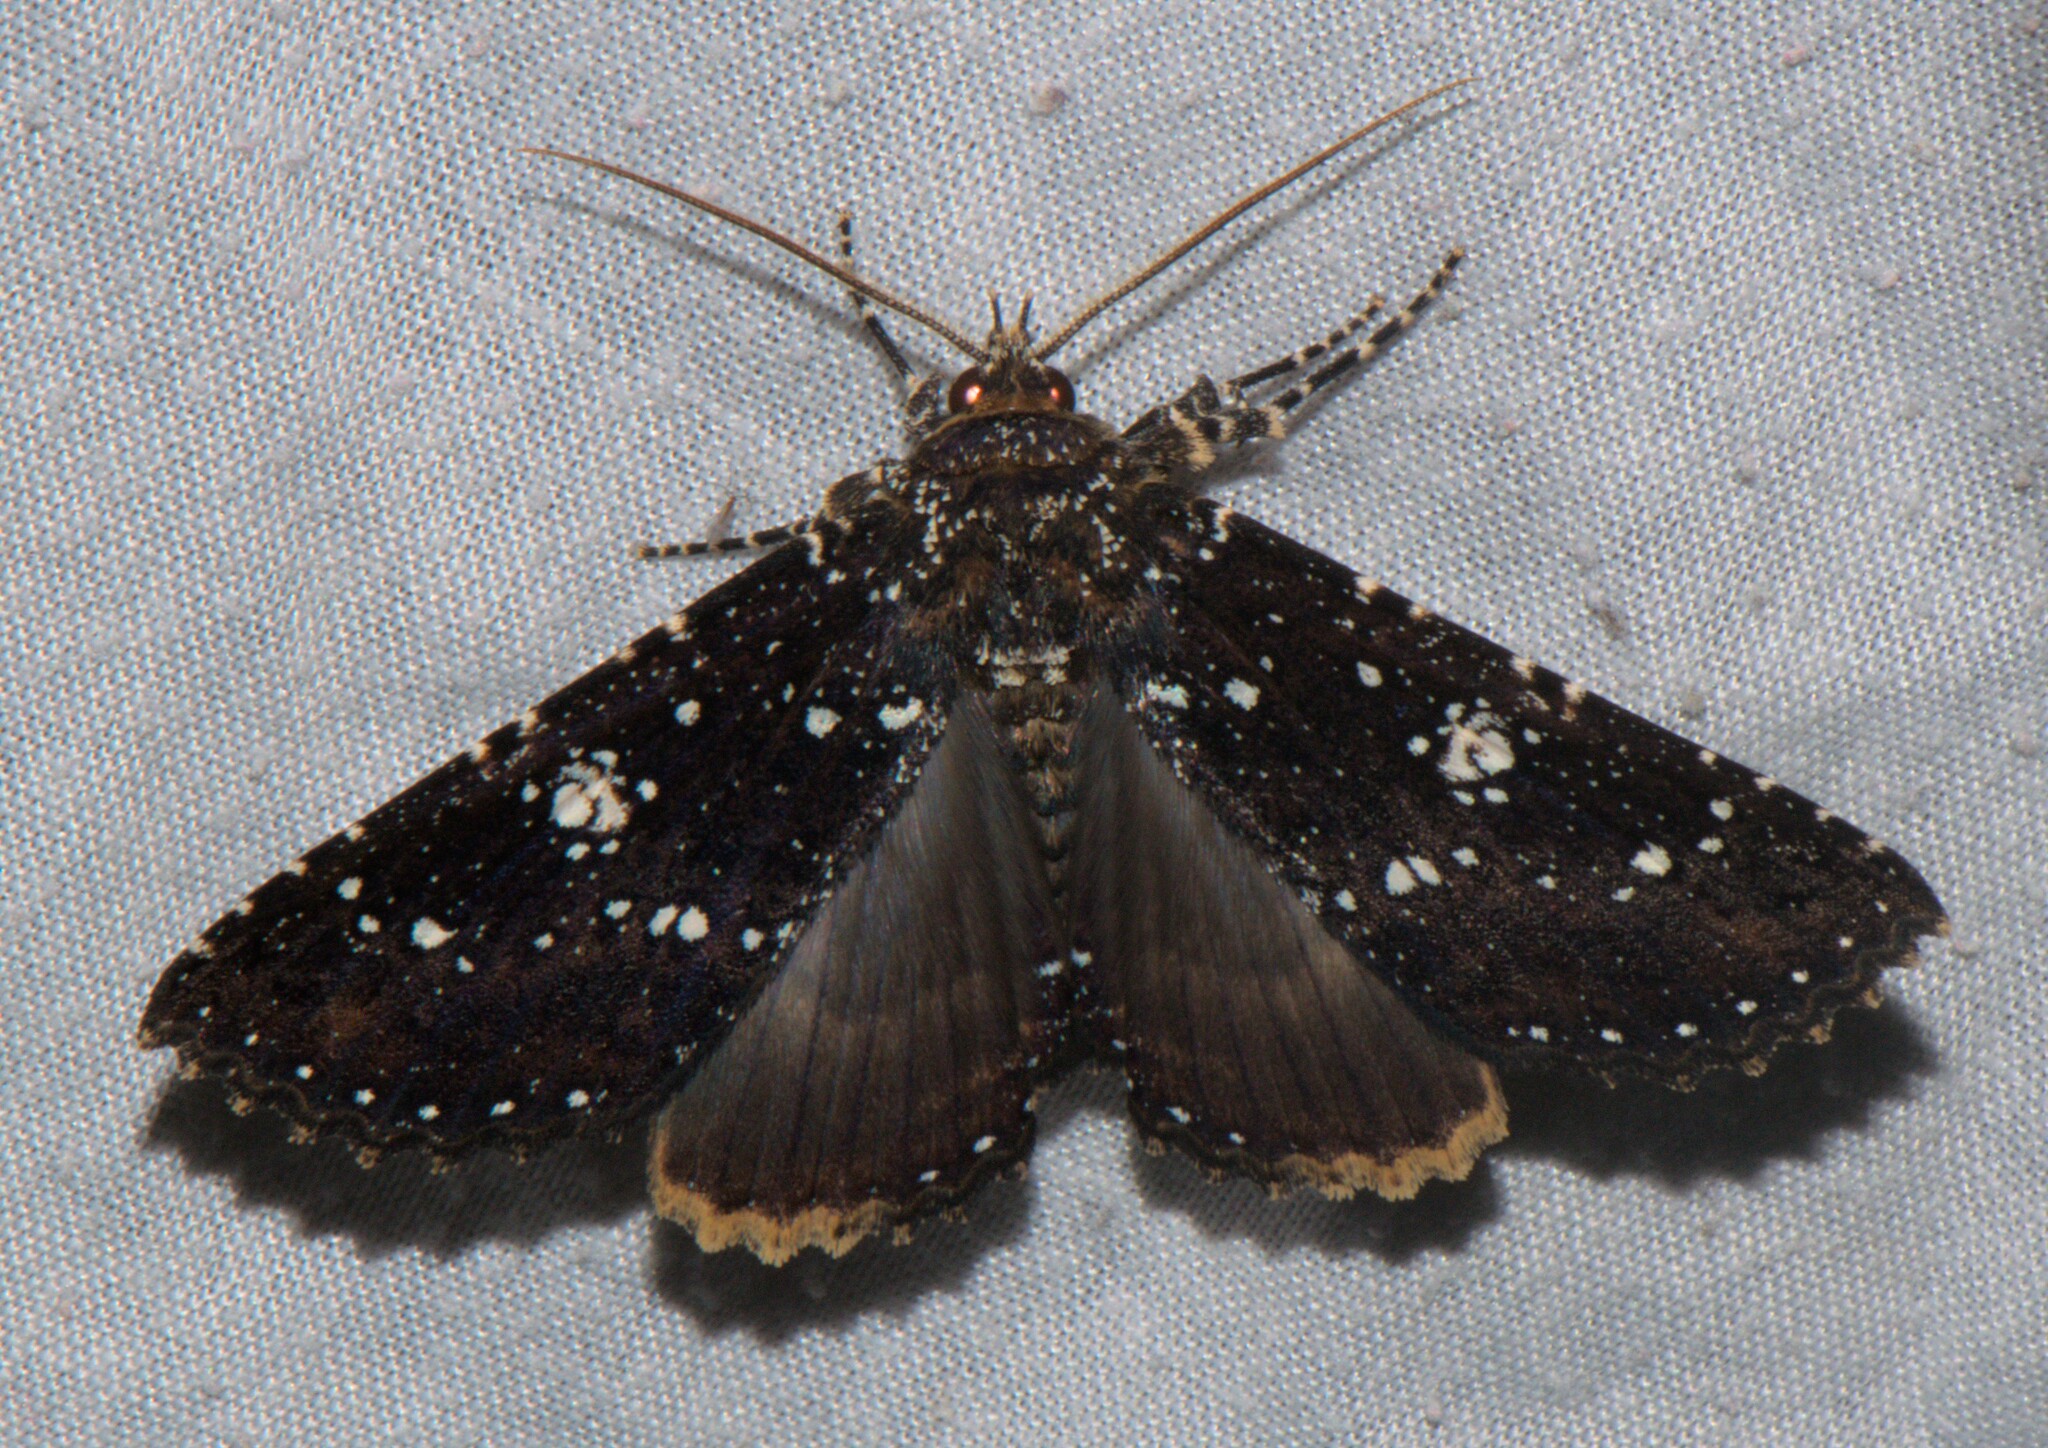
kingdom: Animalia
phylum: Arthropoda
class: Insecta
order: Lepidoptera
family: Erebidae
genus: Hypersypnoides
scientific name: Hypersypnoides
